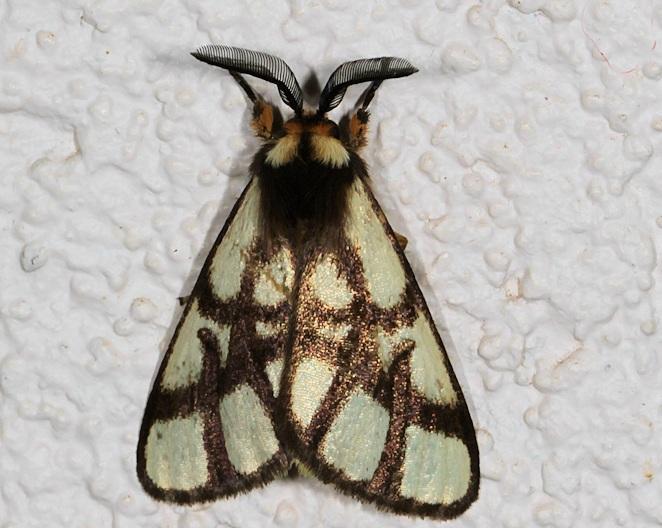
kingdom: Animalia
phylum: Arthropoda
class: Insecta
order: Lepidoptera
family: Notodontidae
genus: Anaphe
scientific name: Anaphe reticulata
